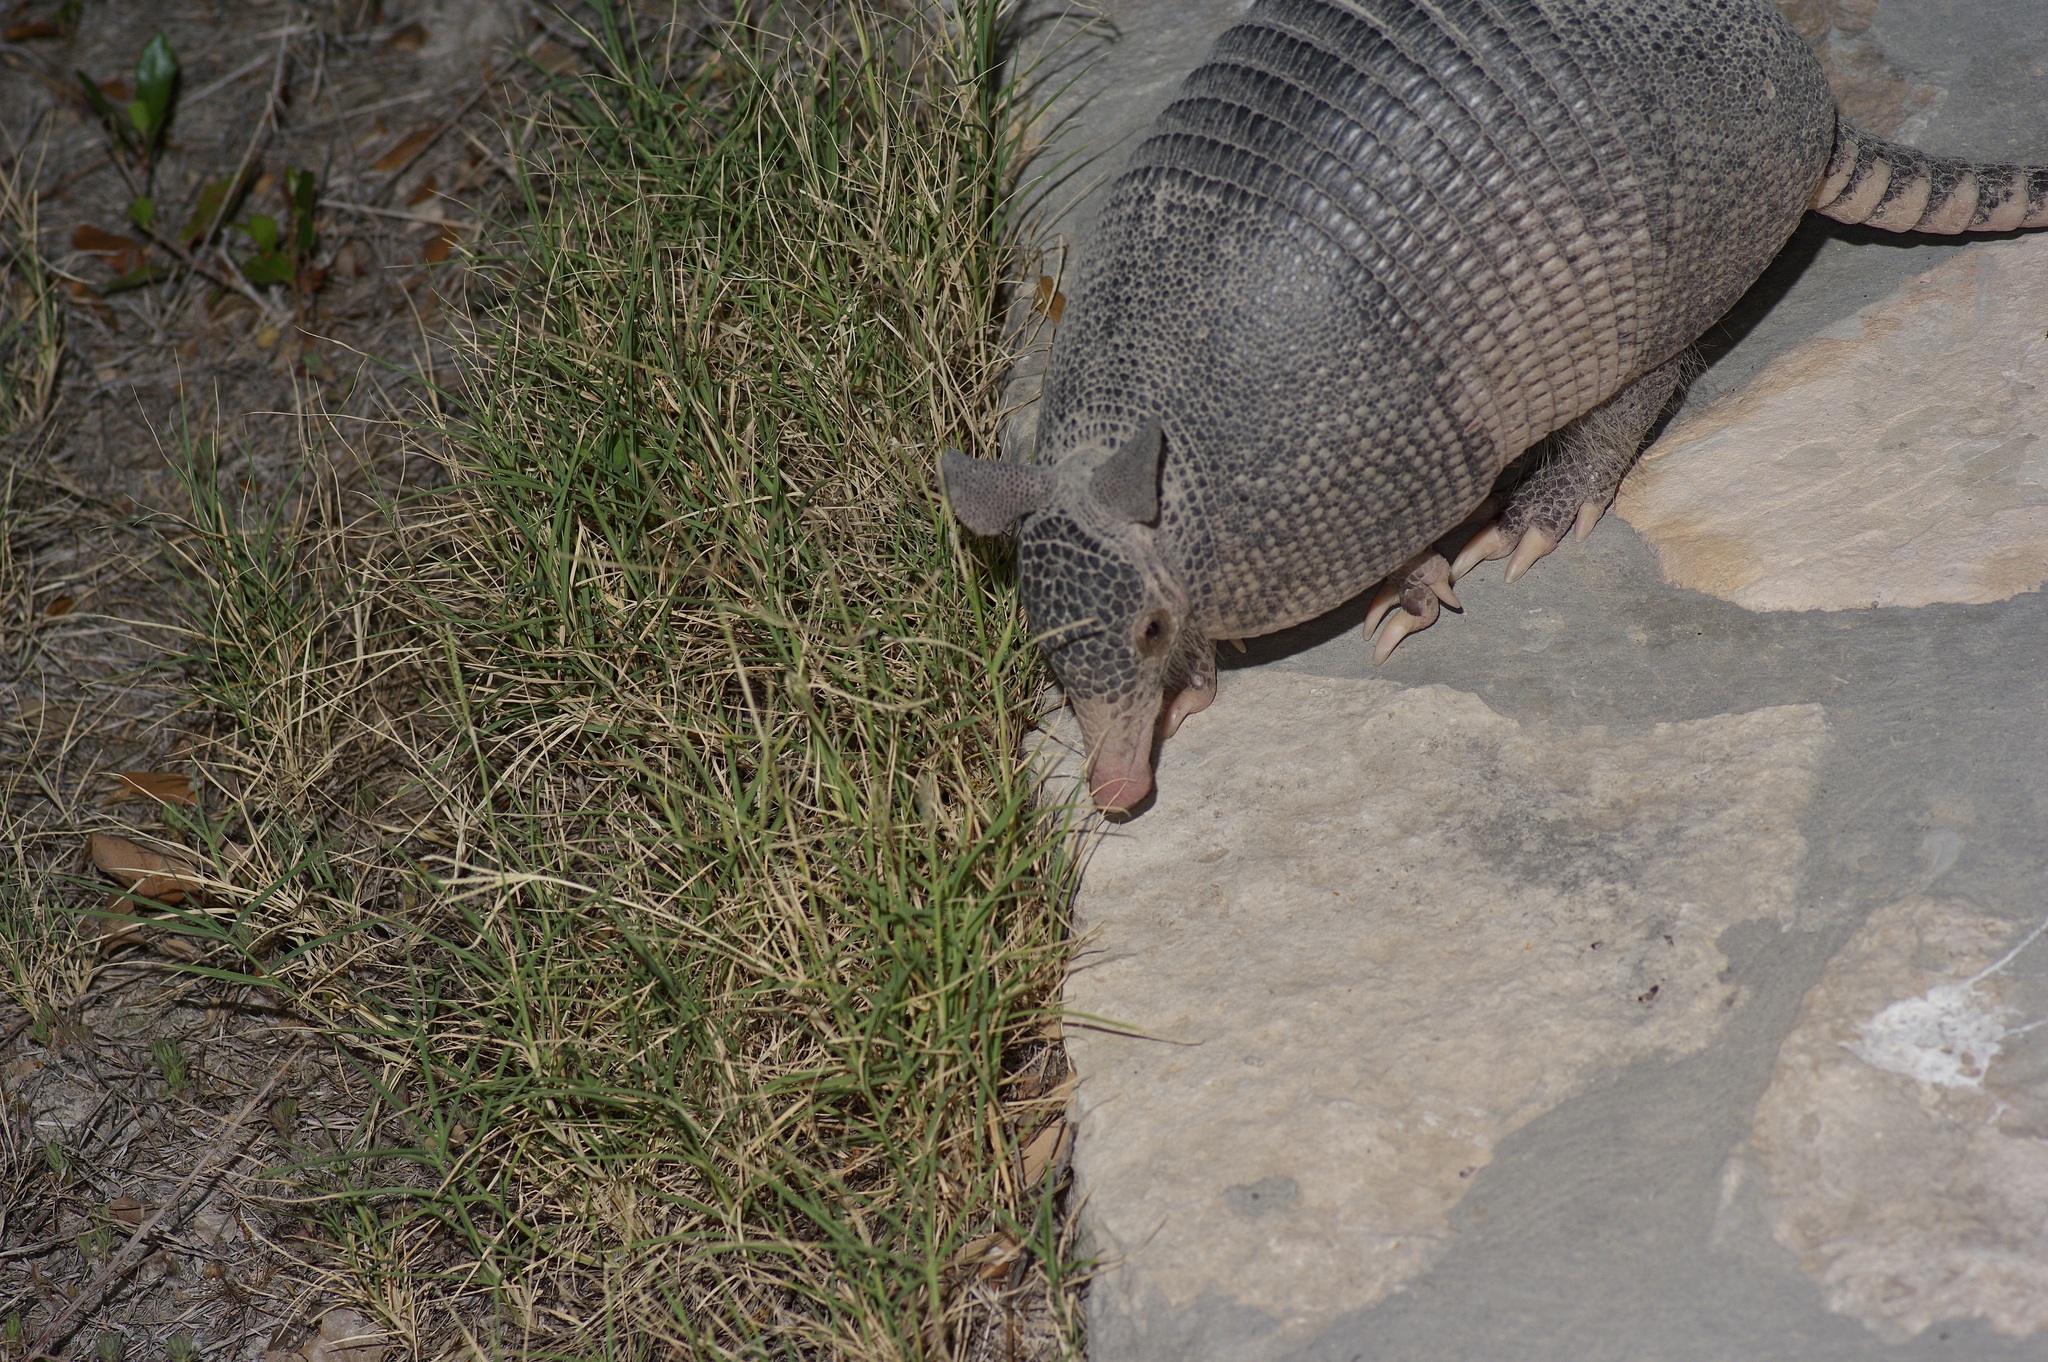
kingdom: Animalia
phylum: Chordata
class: Mammalia
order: Cingulata
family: Dasypodidae
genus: Dasypus
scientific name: Dasypus novemcinctus
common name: Nine-banded armadillo
